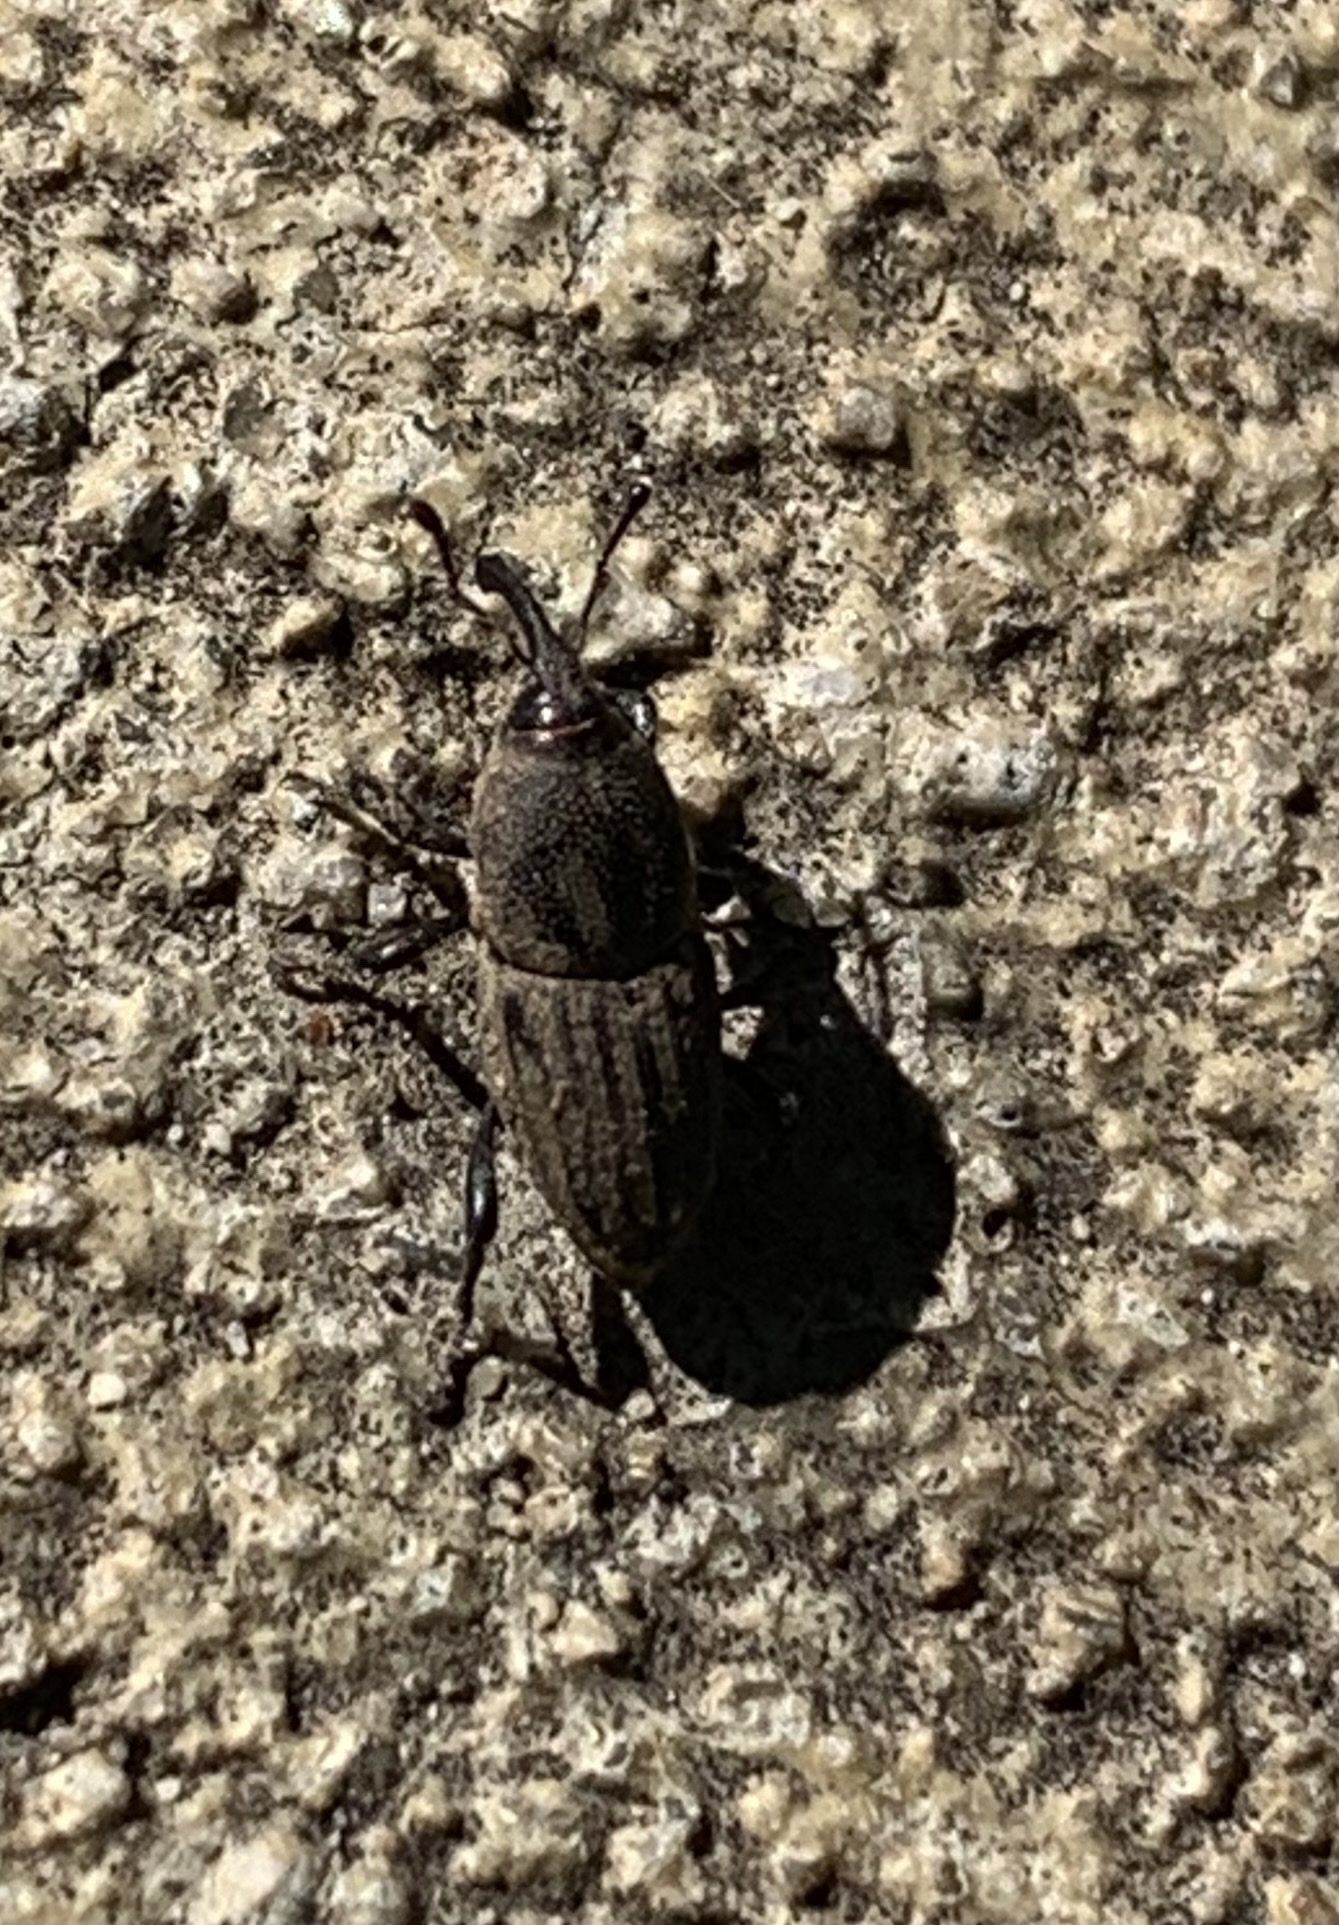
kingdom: Animalia
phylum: Arthropoda
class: Insecta
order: Coleoptera
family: Dryophthoridae
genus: Sphenophorus
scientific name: Sphenophorus interstitialis
